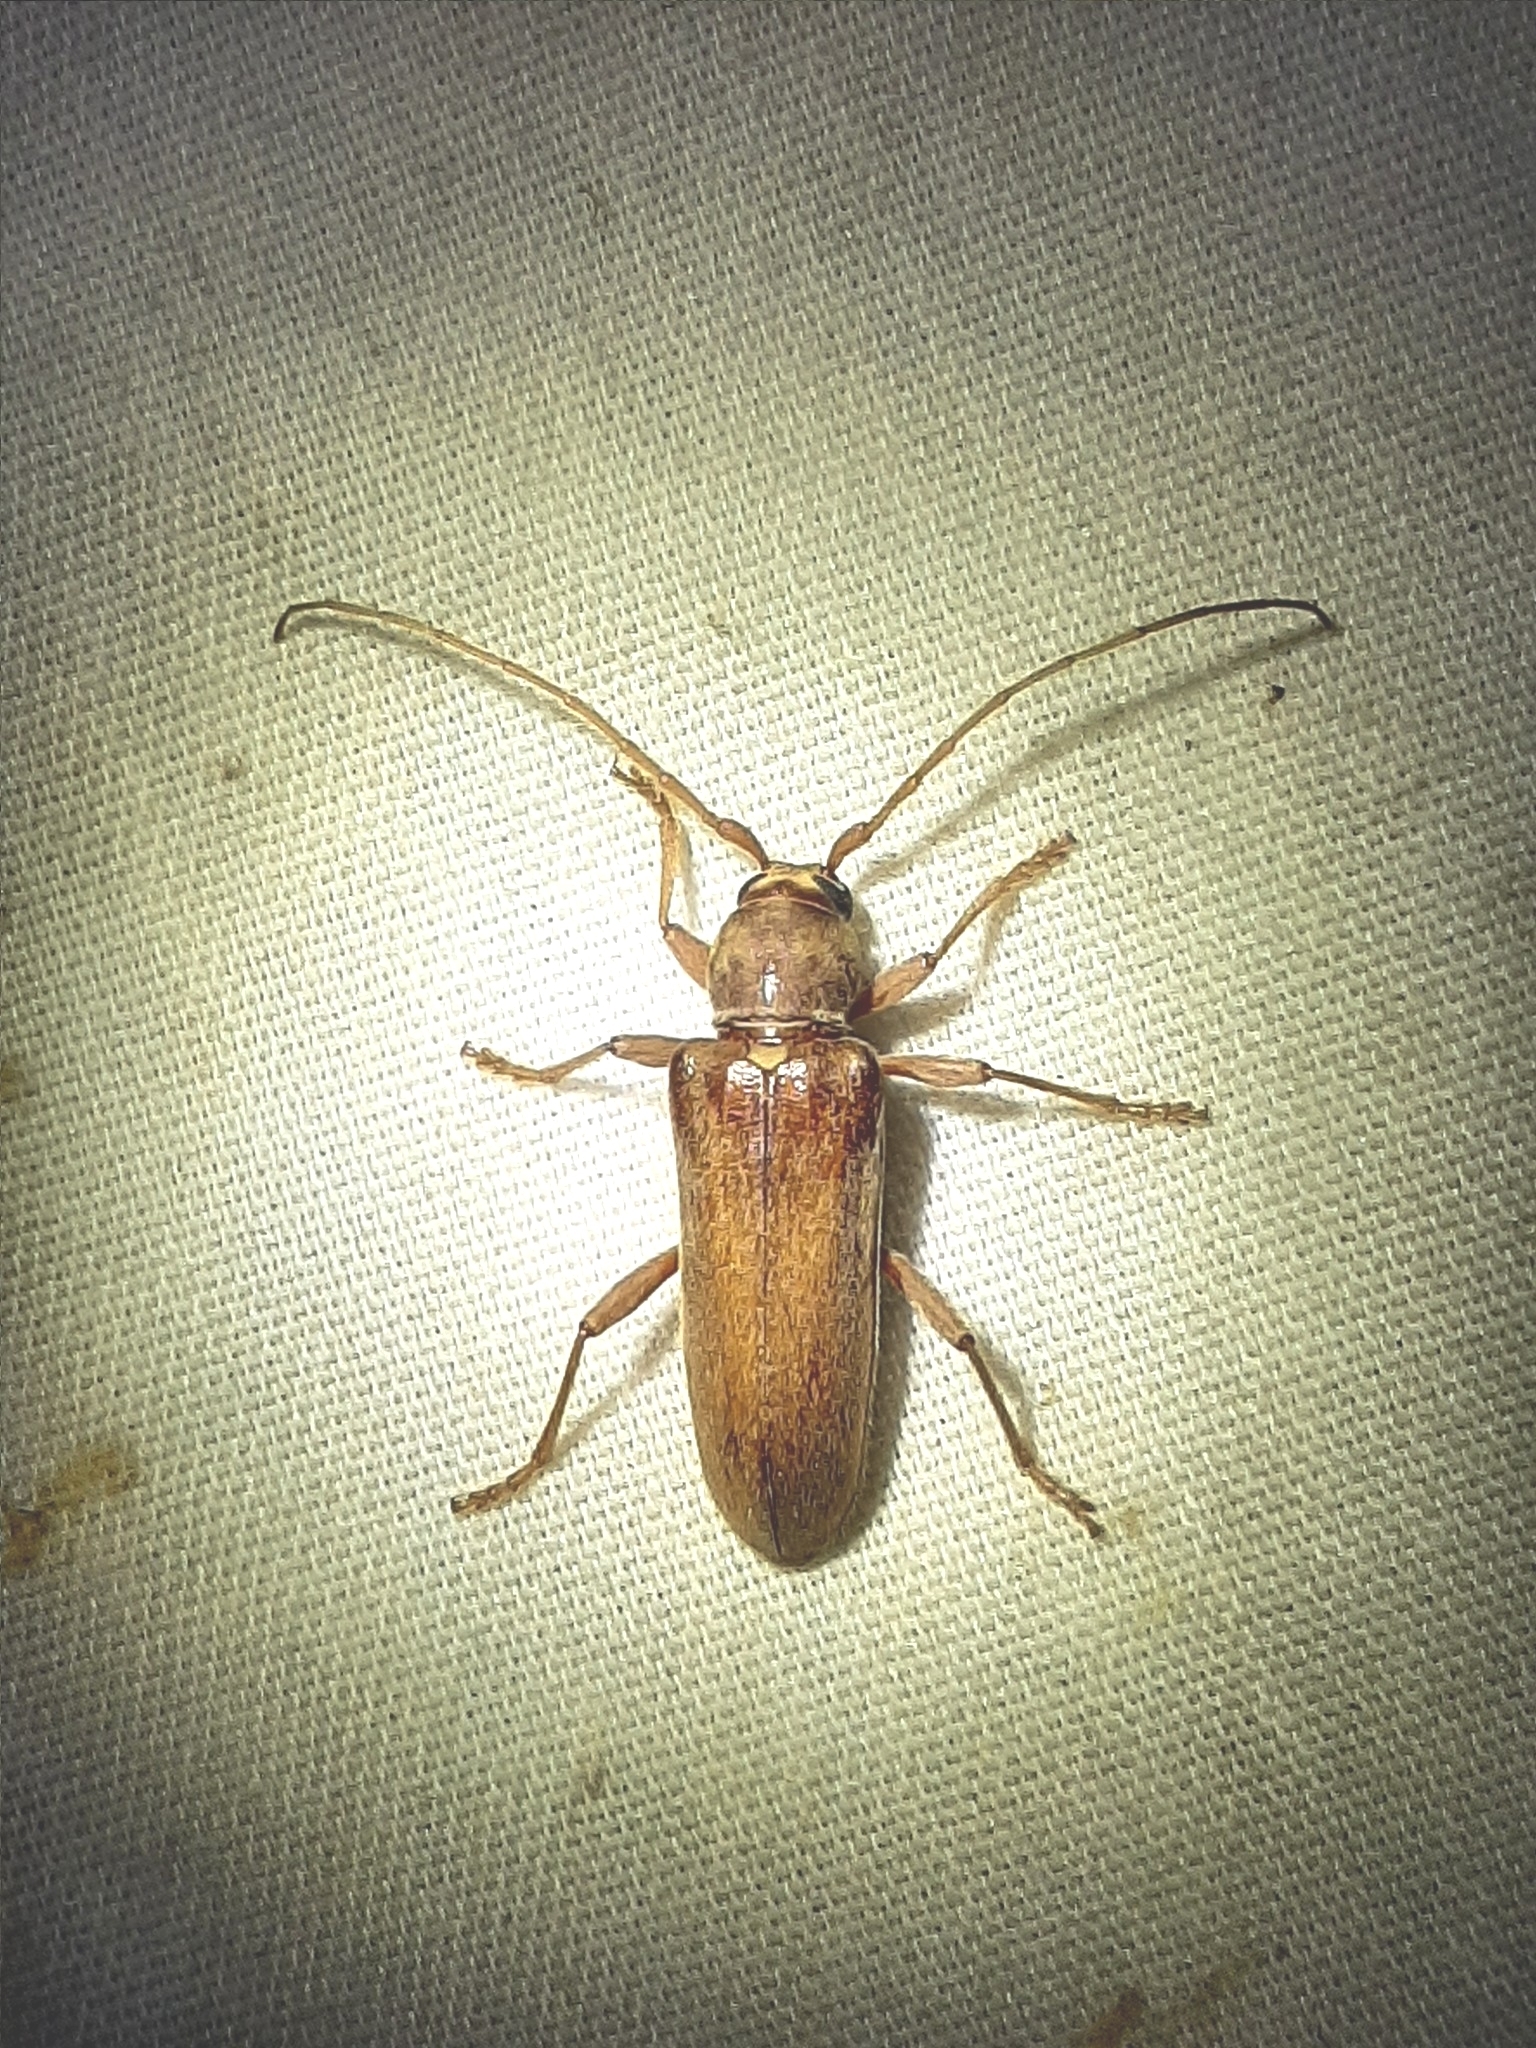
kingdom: Animalia
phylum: Arthropoda
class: Insecta
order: Coleoptera
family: Cerambycidae
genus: Hesperophanes
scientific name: Hesperophanes pubescens
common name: Longhorned wood-boring beetle
